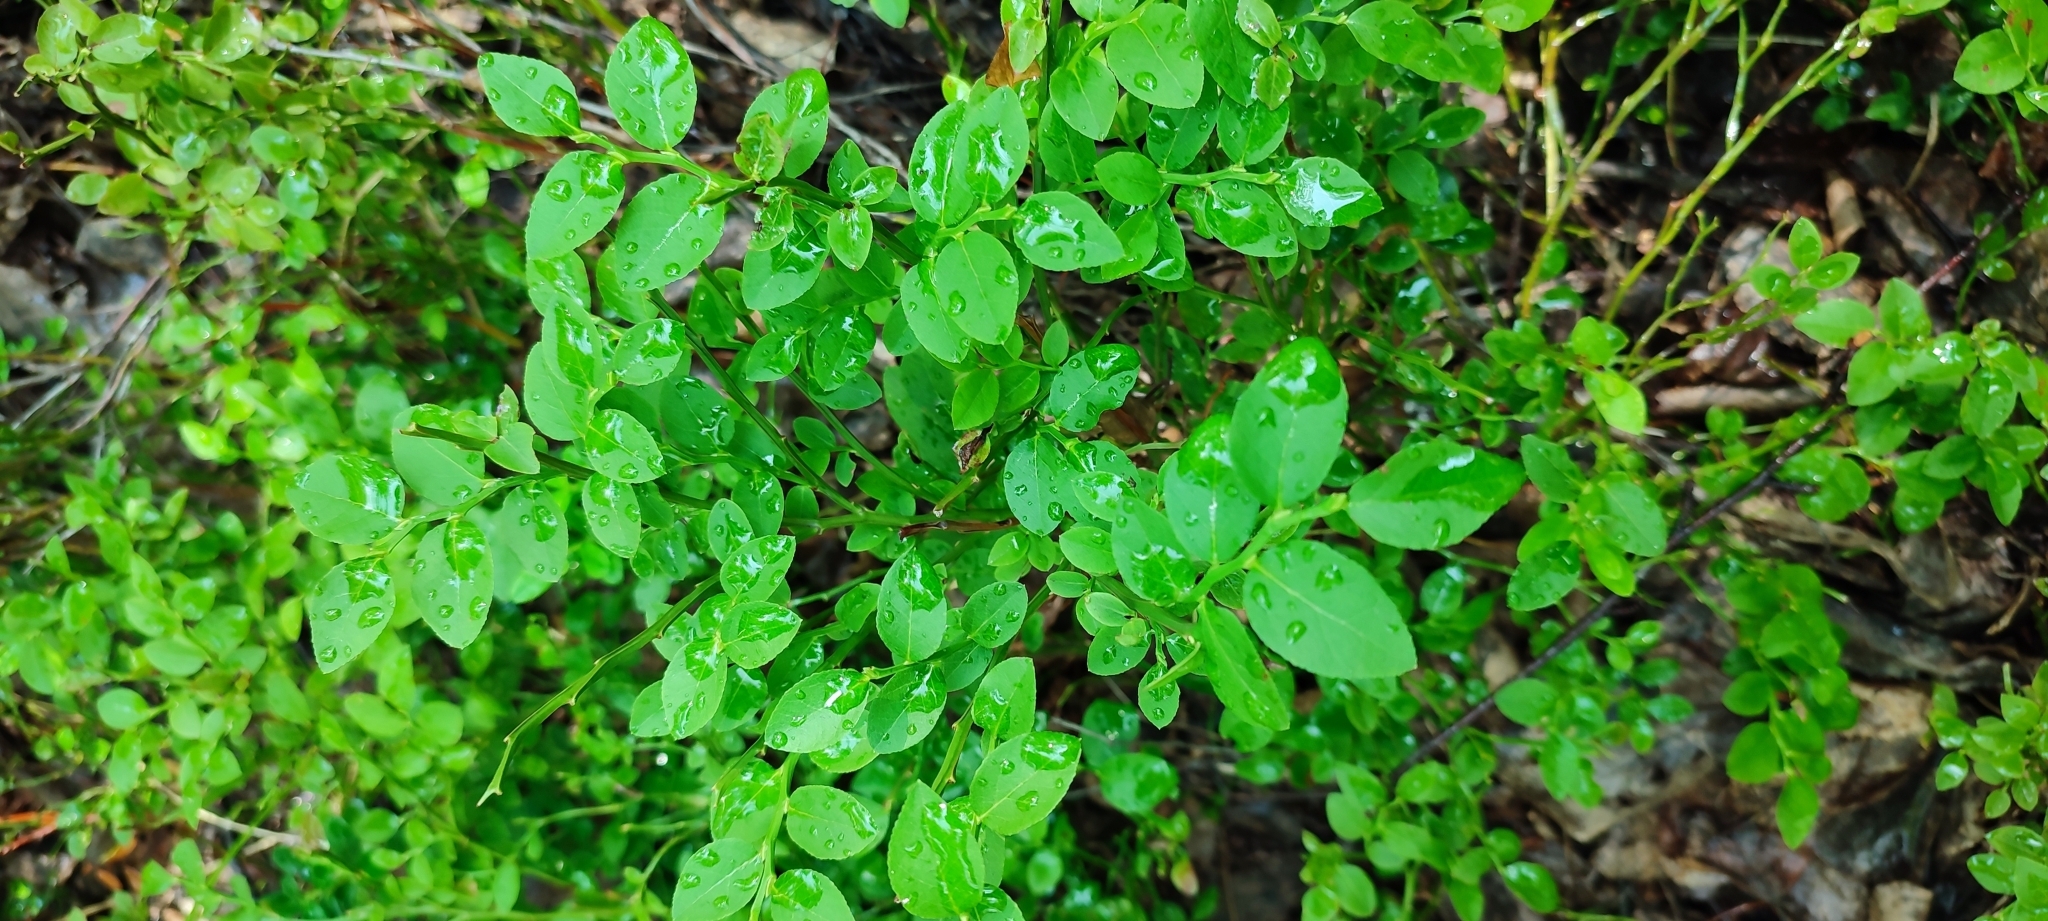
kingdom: Plantae
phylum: Tracheophyta
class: Magnoliopsida
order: Ericales
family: Ericaceae
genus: Vaccinium
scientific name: Vaccinium myrtillus
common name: Bilberry
